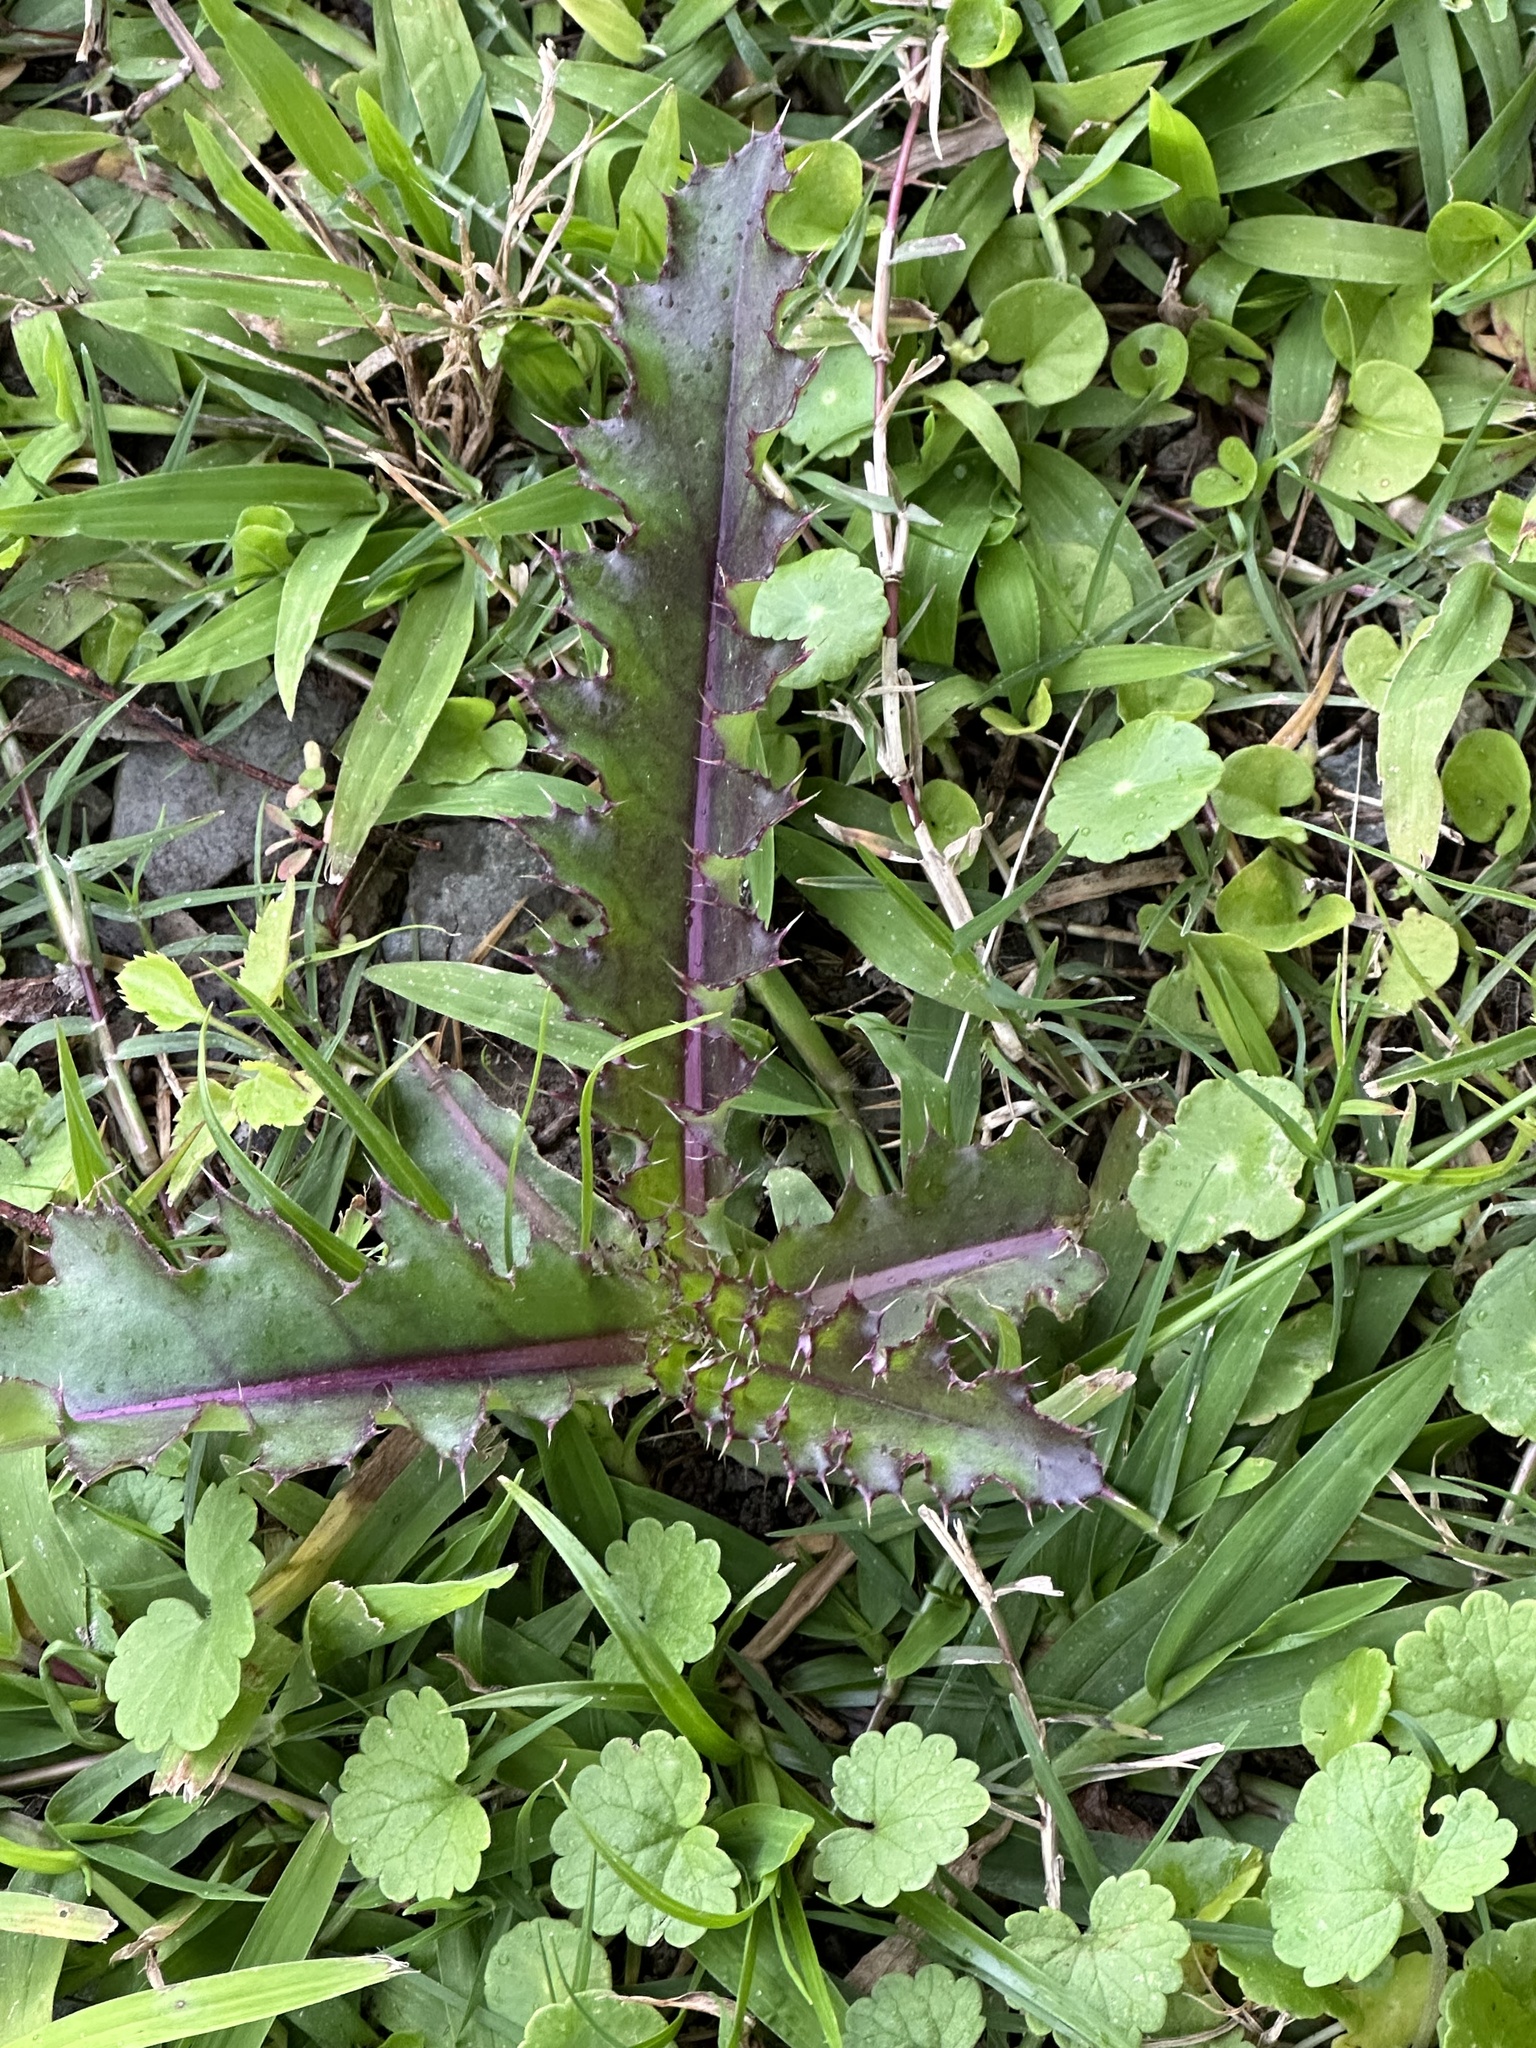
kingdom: Plantae
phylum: Tracheophyta
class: Magnoliopsida
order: Asterales
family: Asteraceae
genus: Cirsium
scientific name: Cirsium horridulum
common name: Bristly thistle
